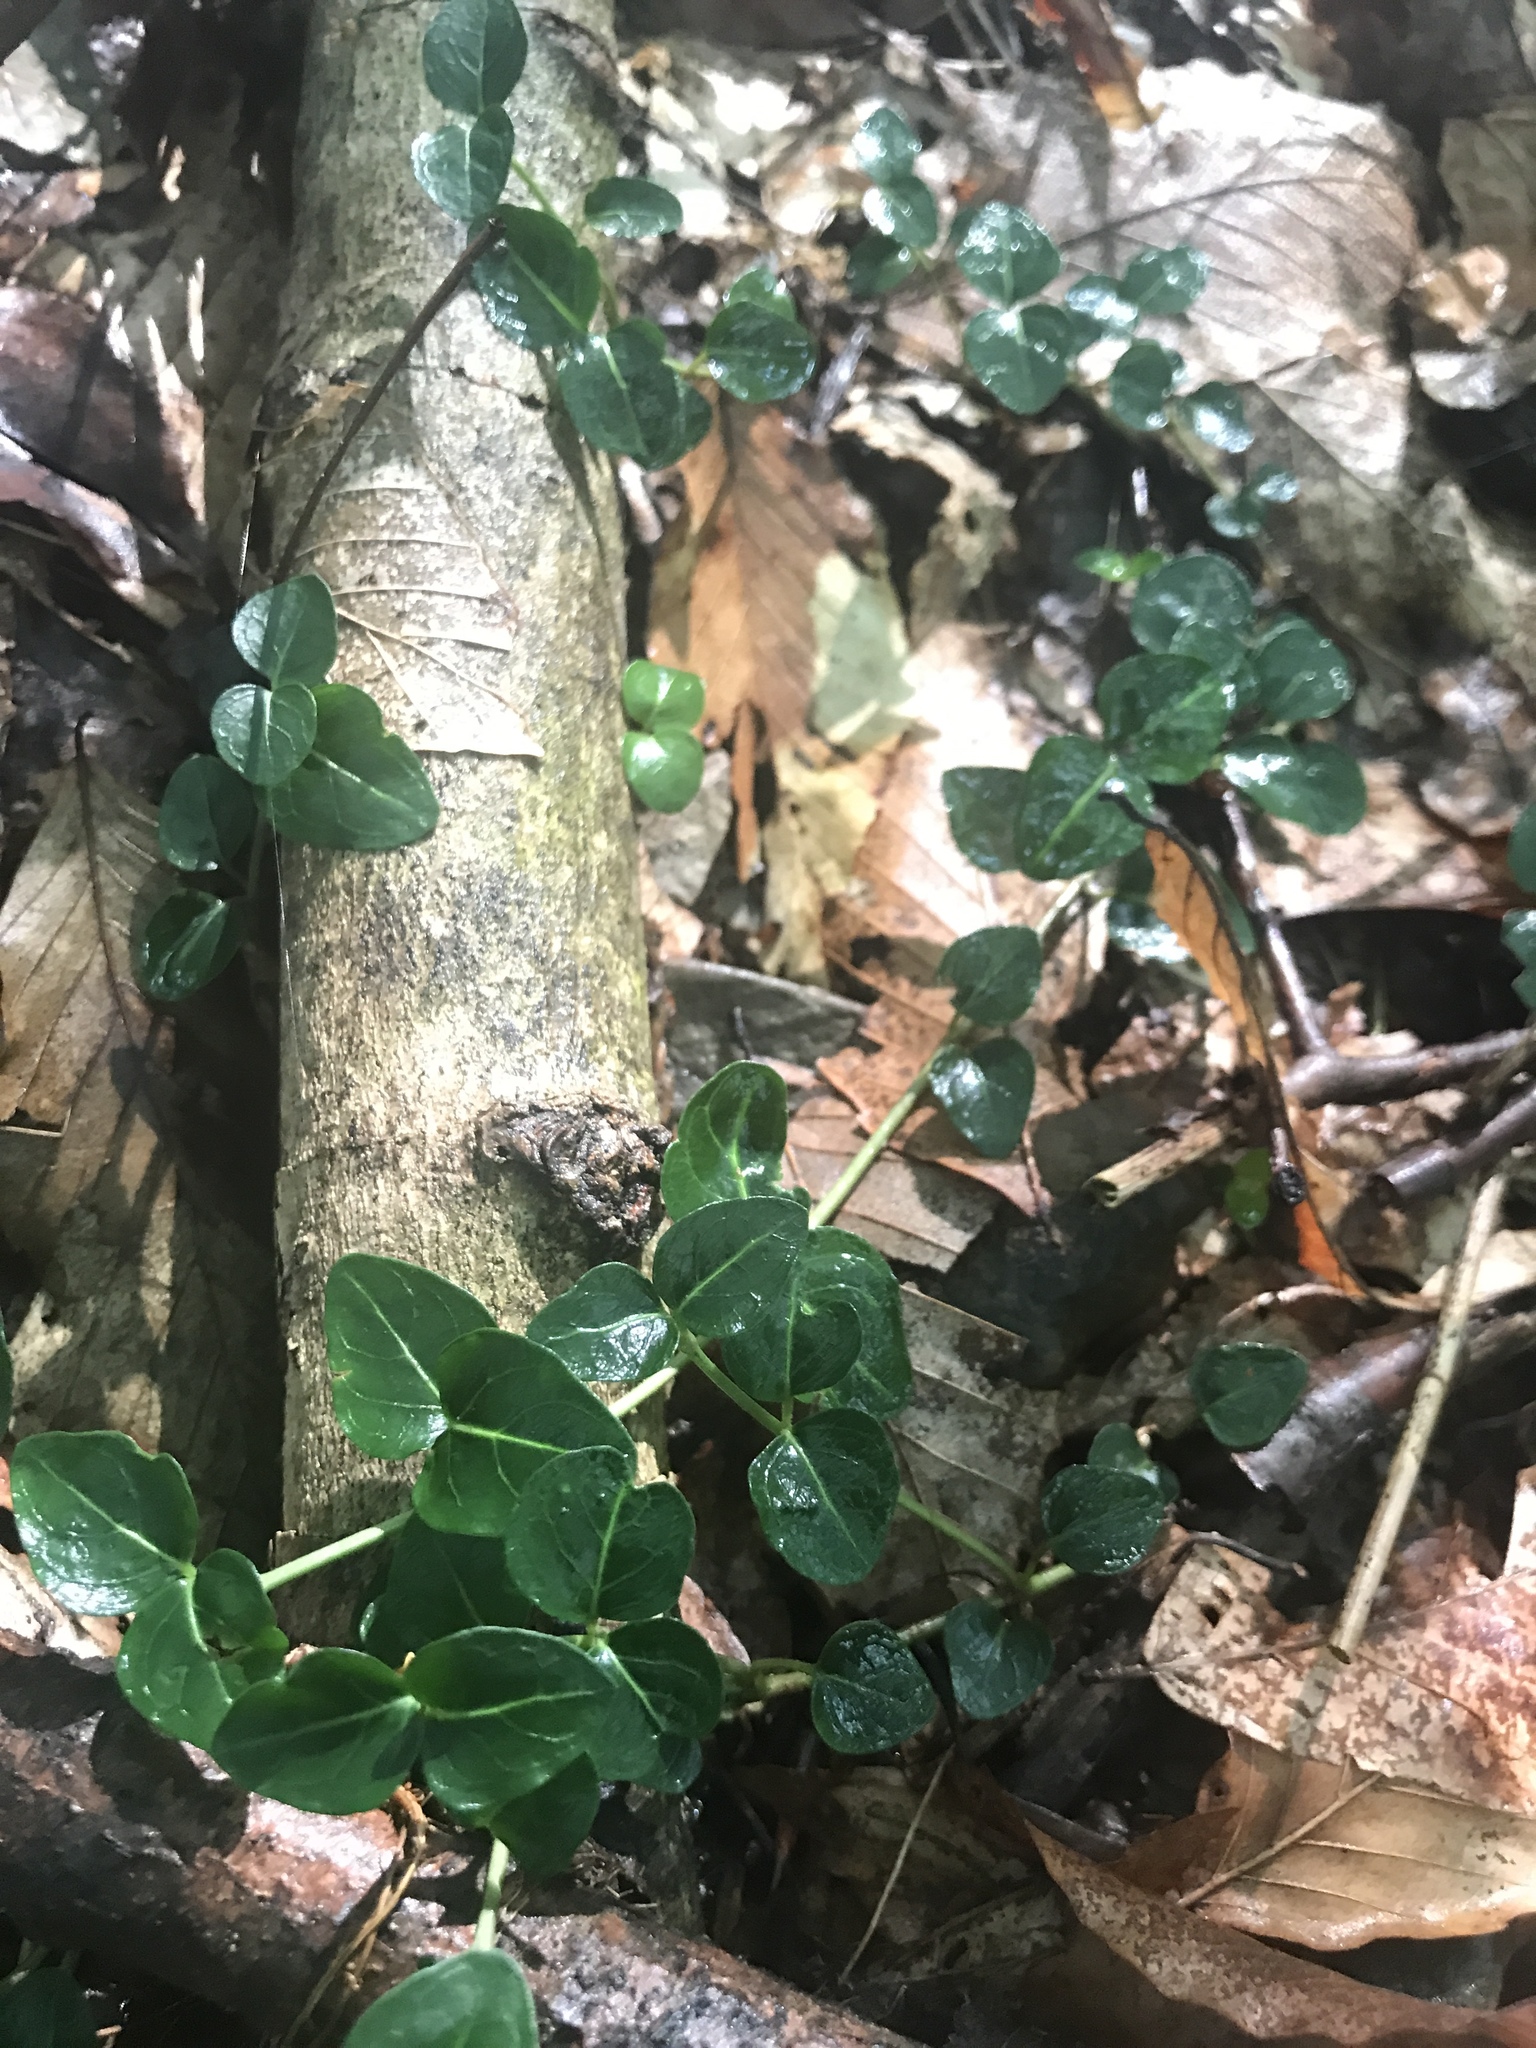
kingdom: Plantae
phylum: Tracheophyta
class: Magnoliopsida
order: Gentianales
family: Rubiaceae
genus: Mitchella
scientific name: Mitchella repens
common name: Partridge-berry
